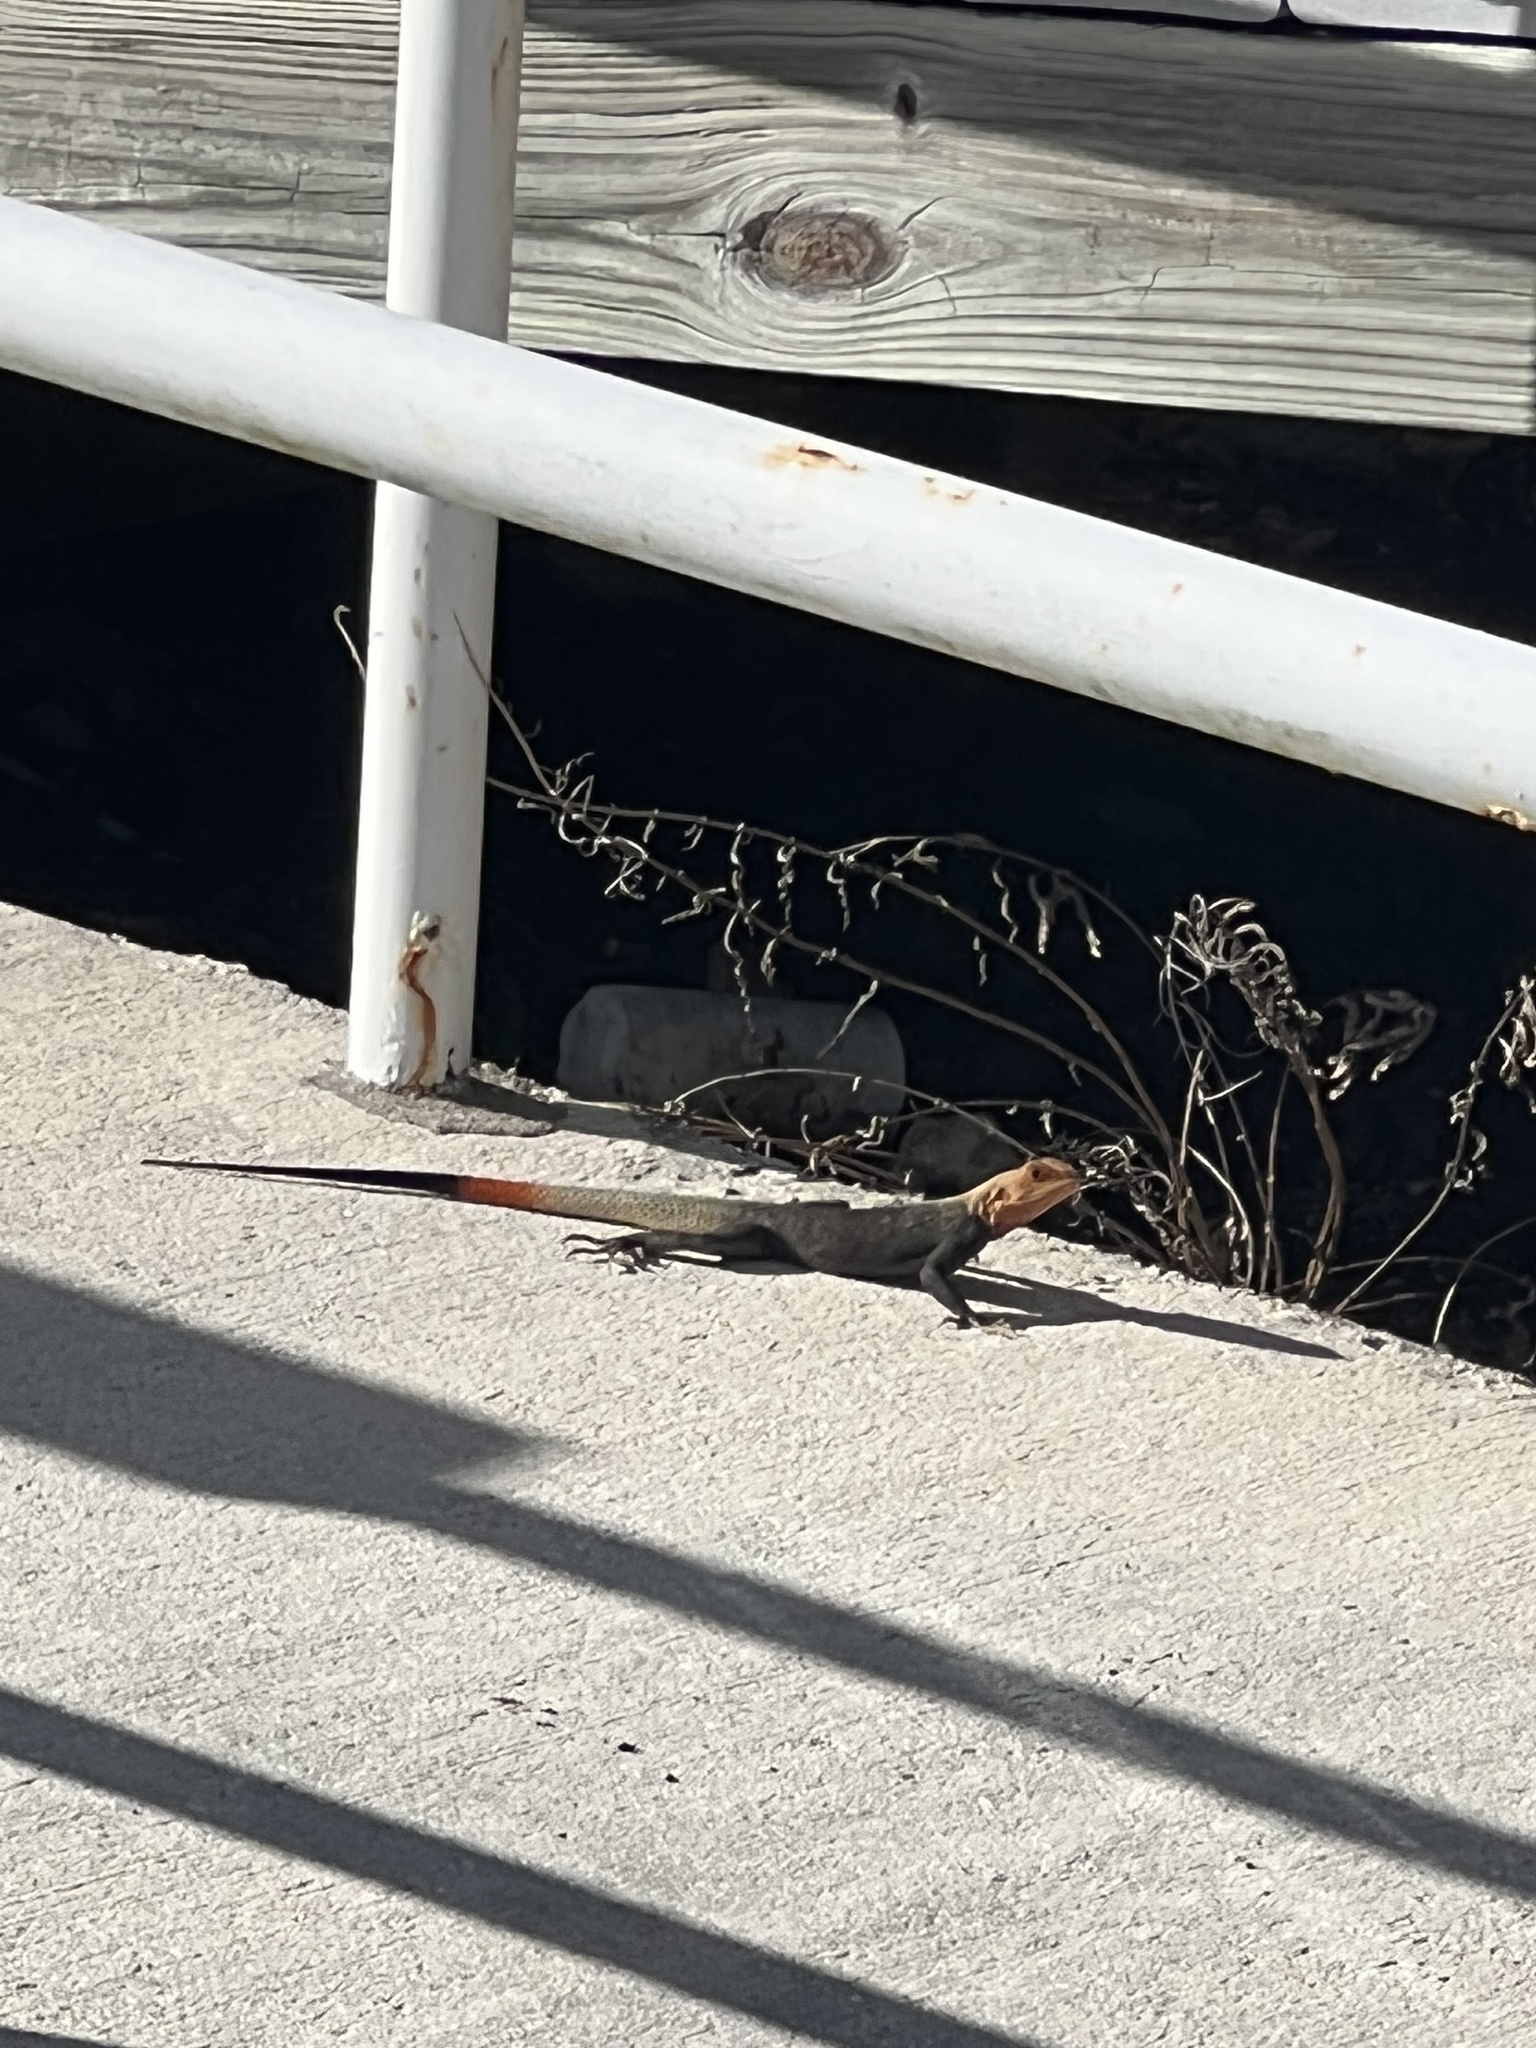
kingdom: Animalia
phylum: Chordata
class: Squamata
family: Agamidae
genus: Agama
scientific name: Agama picticauda
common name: Red-headed agama
